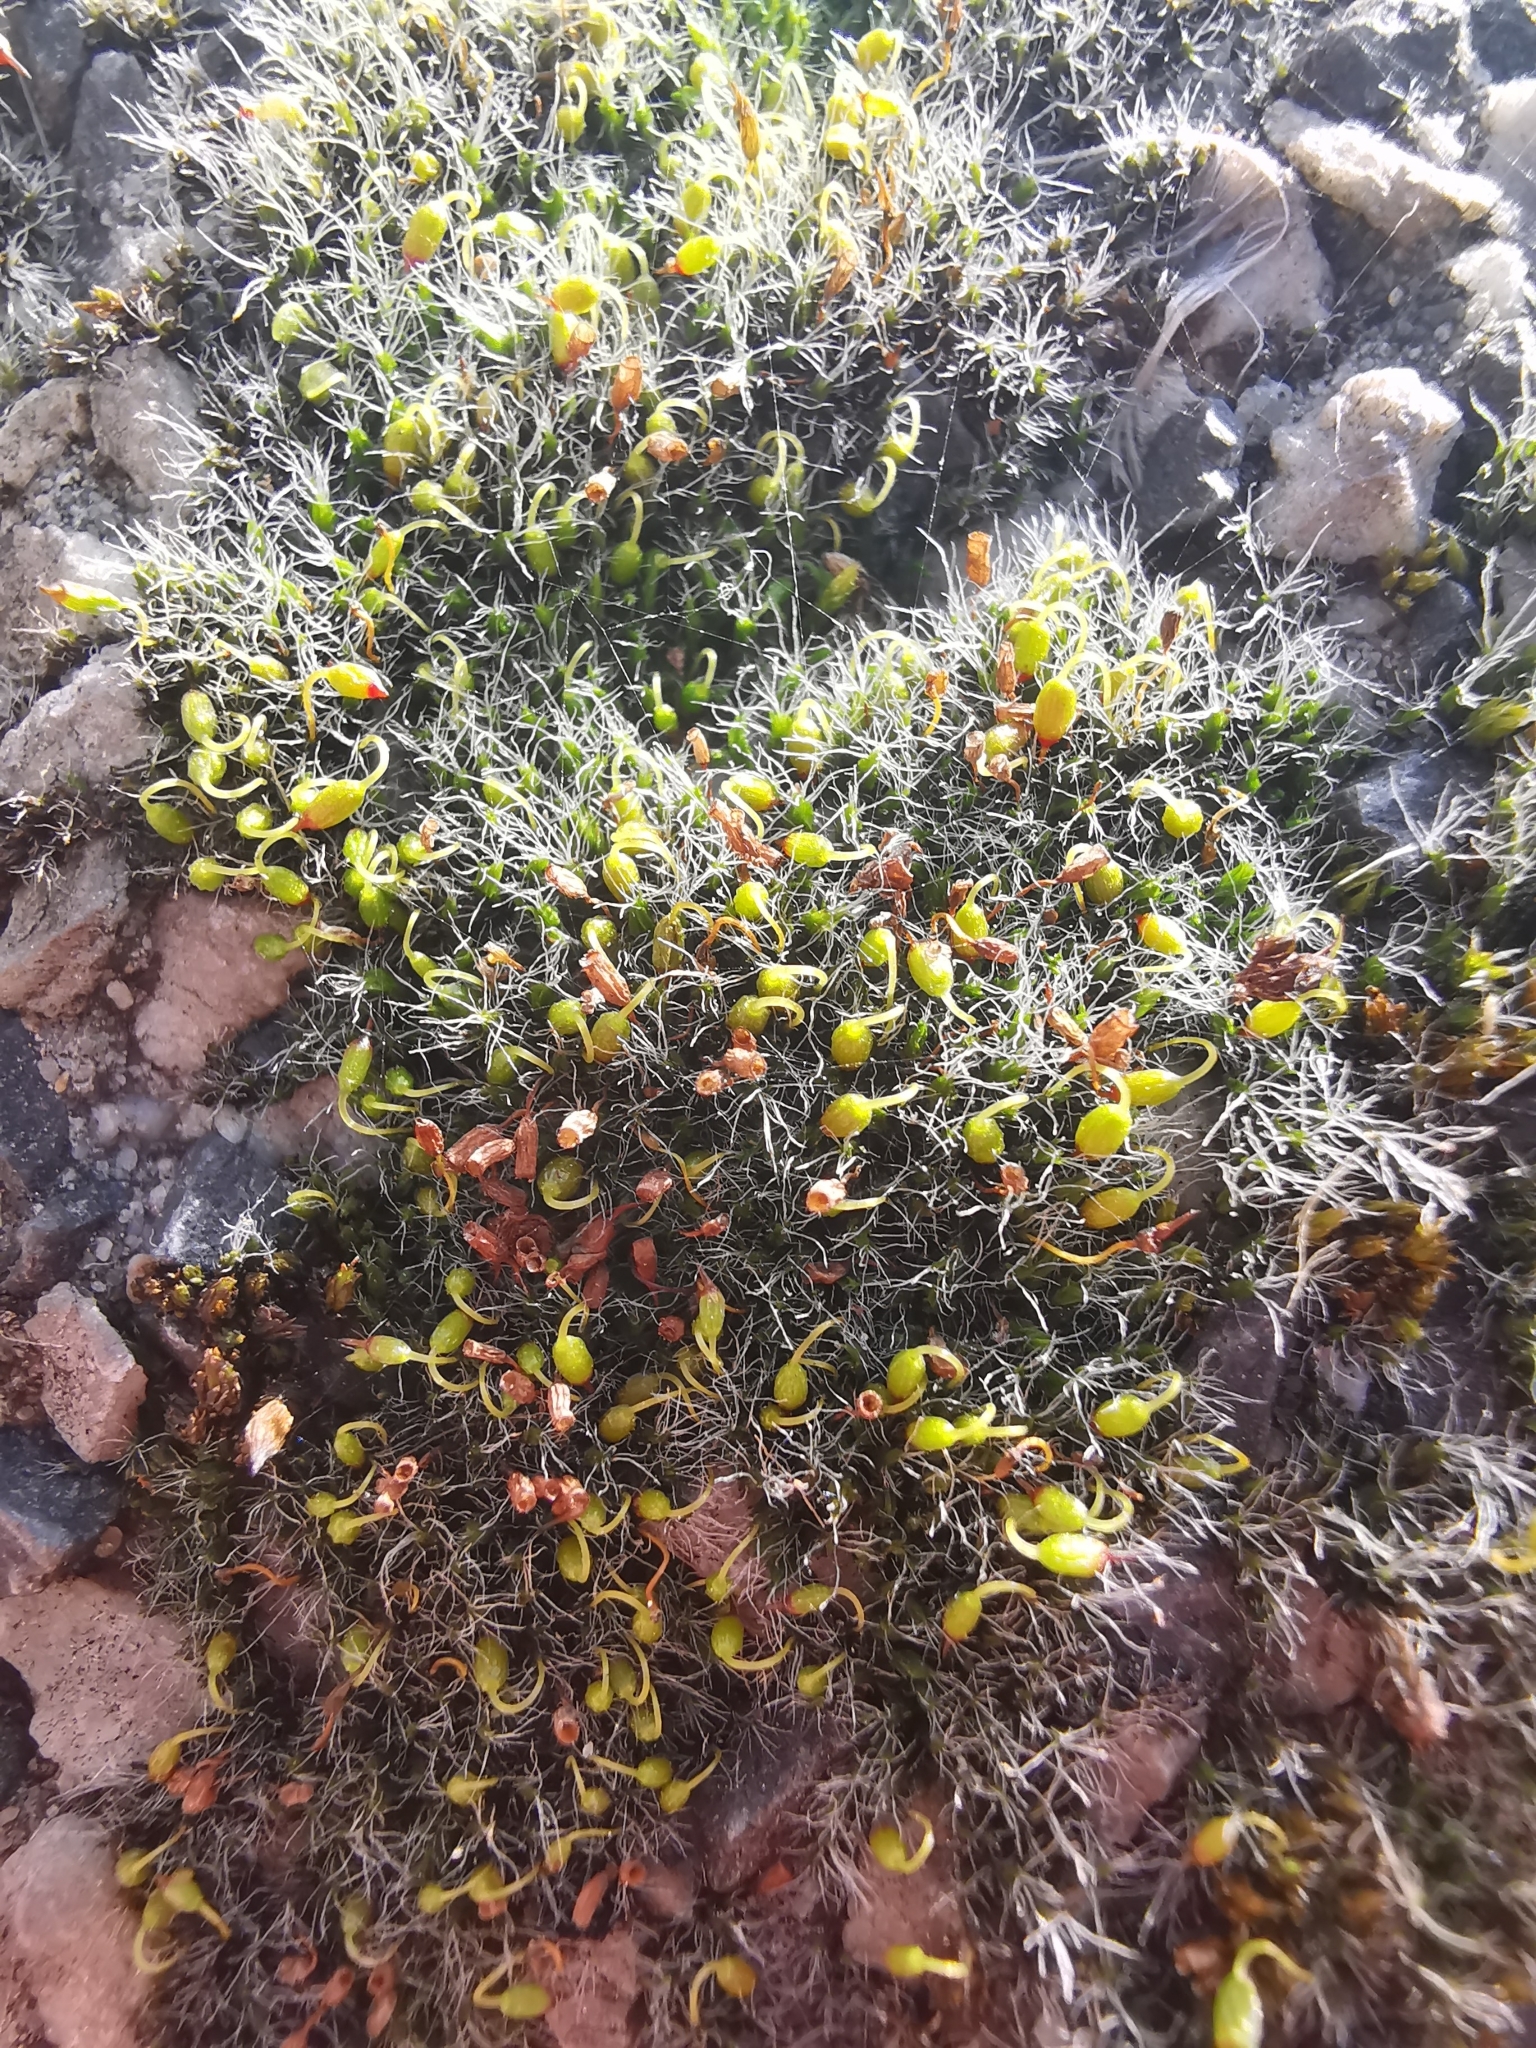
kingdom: Plantae
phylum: Bryophyta
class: Bryopsida
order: Grimmiales
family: Grimmiaceae
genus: Grimmia
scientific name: Grimmia pulvinata
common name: Grey-cushioned grimmia
